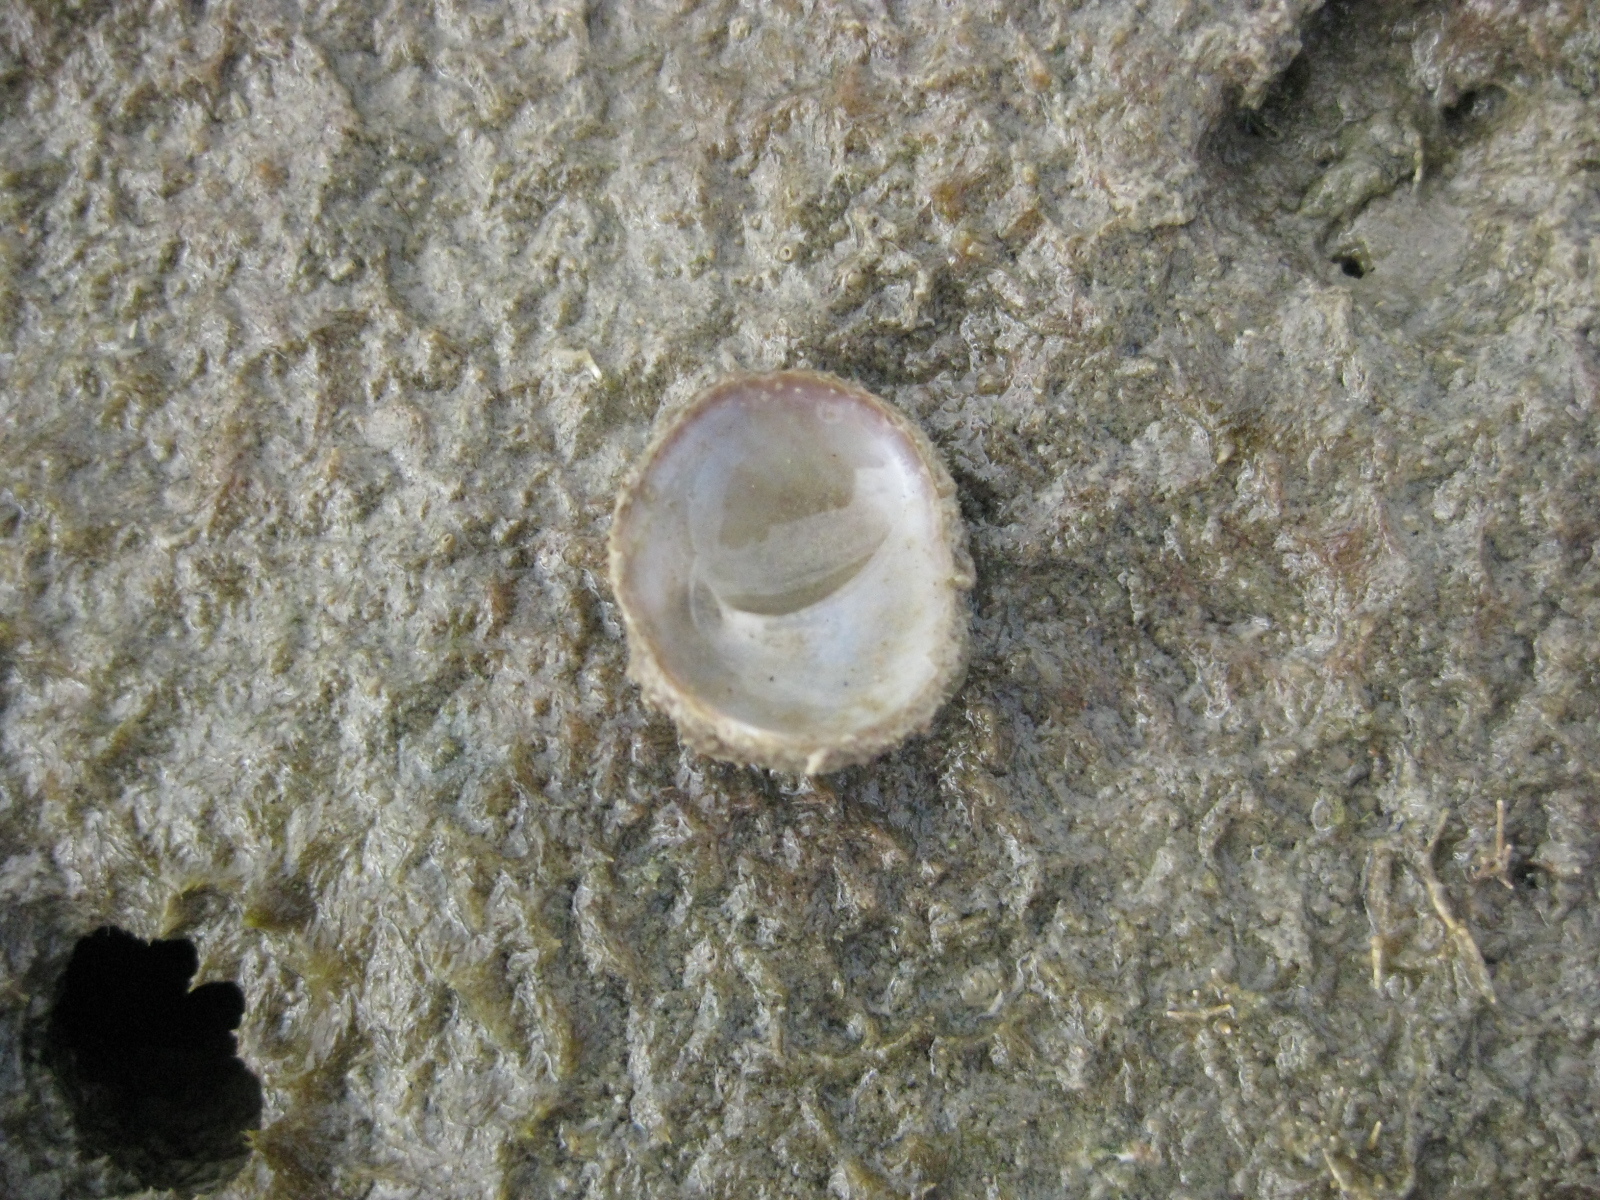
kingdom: Animalia
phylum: Mollusca
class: Gastropoda
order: Littorinimorpha
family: Calyptraeidae
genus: Sigapatella
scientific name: Sigapatella novaezelandiae
